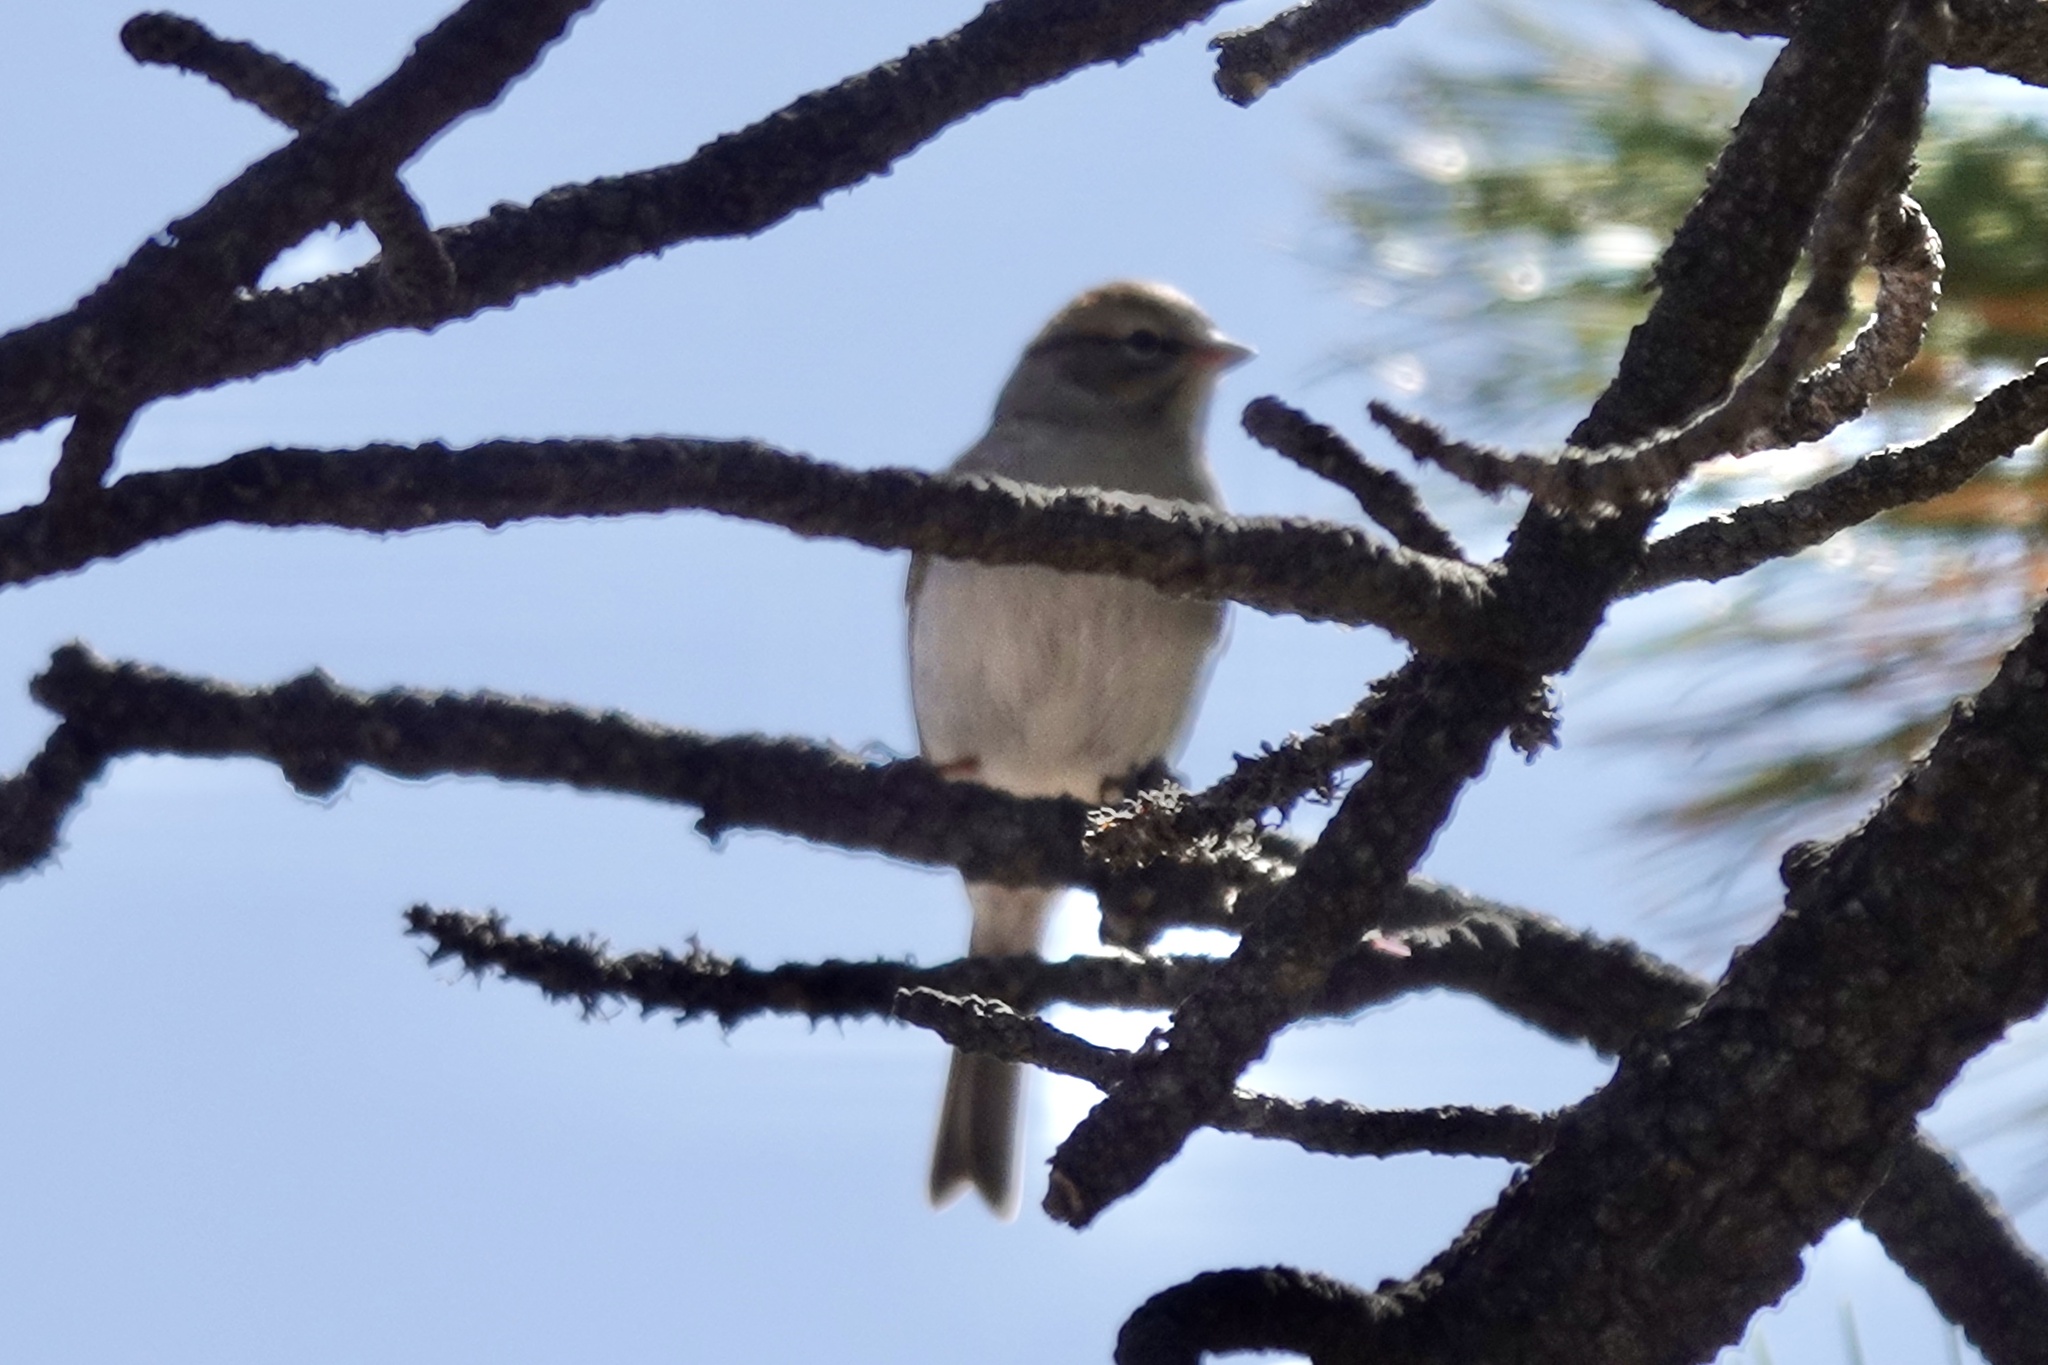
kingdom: Animalia
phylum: Chordata
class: Aves
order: Passeriformes
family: Passerellidae
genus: Spizella
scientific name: Spizella passerina
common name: Chipping sparrow
